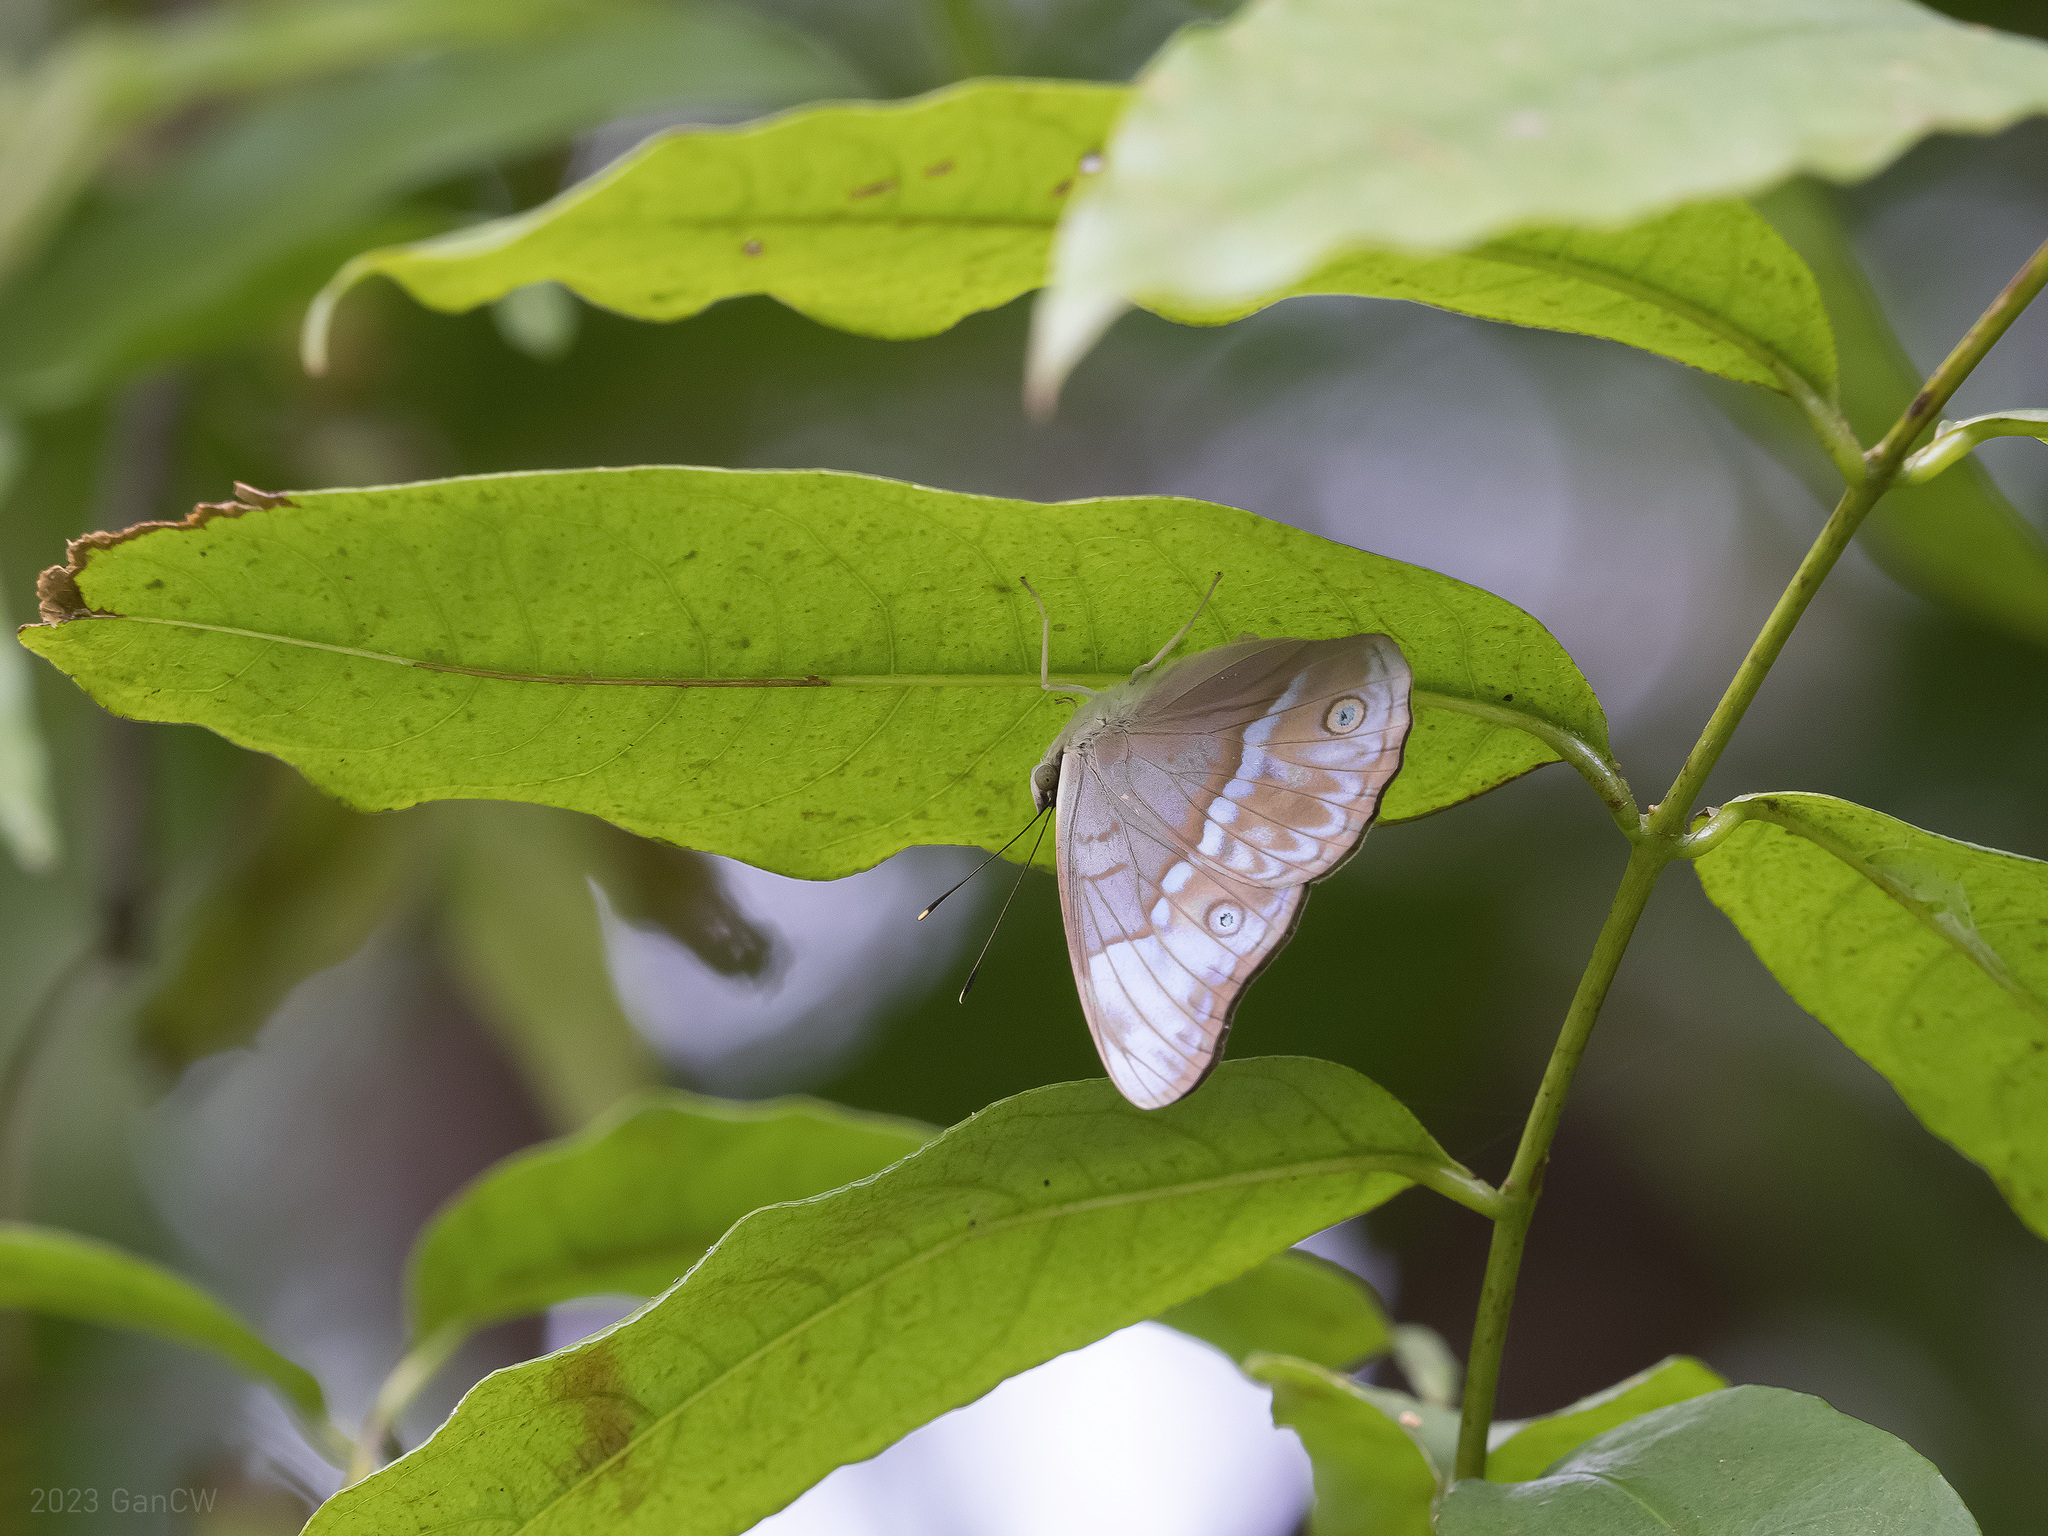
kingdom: Animalia
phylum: Arthropoda
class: Insecta
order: Lepidoptera
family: Nymphalidae
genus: Eulaceura
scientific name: Eulaceura osteria
